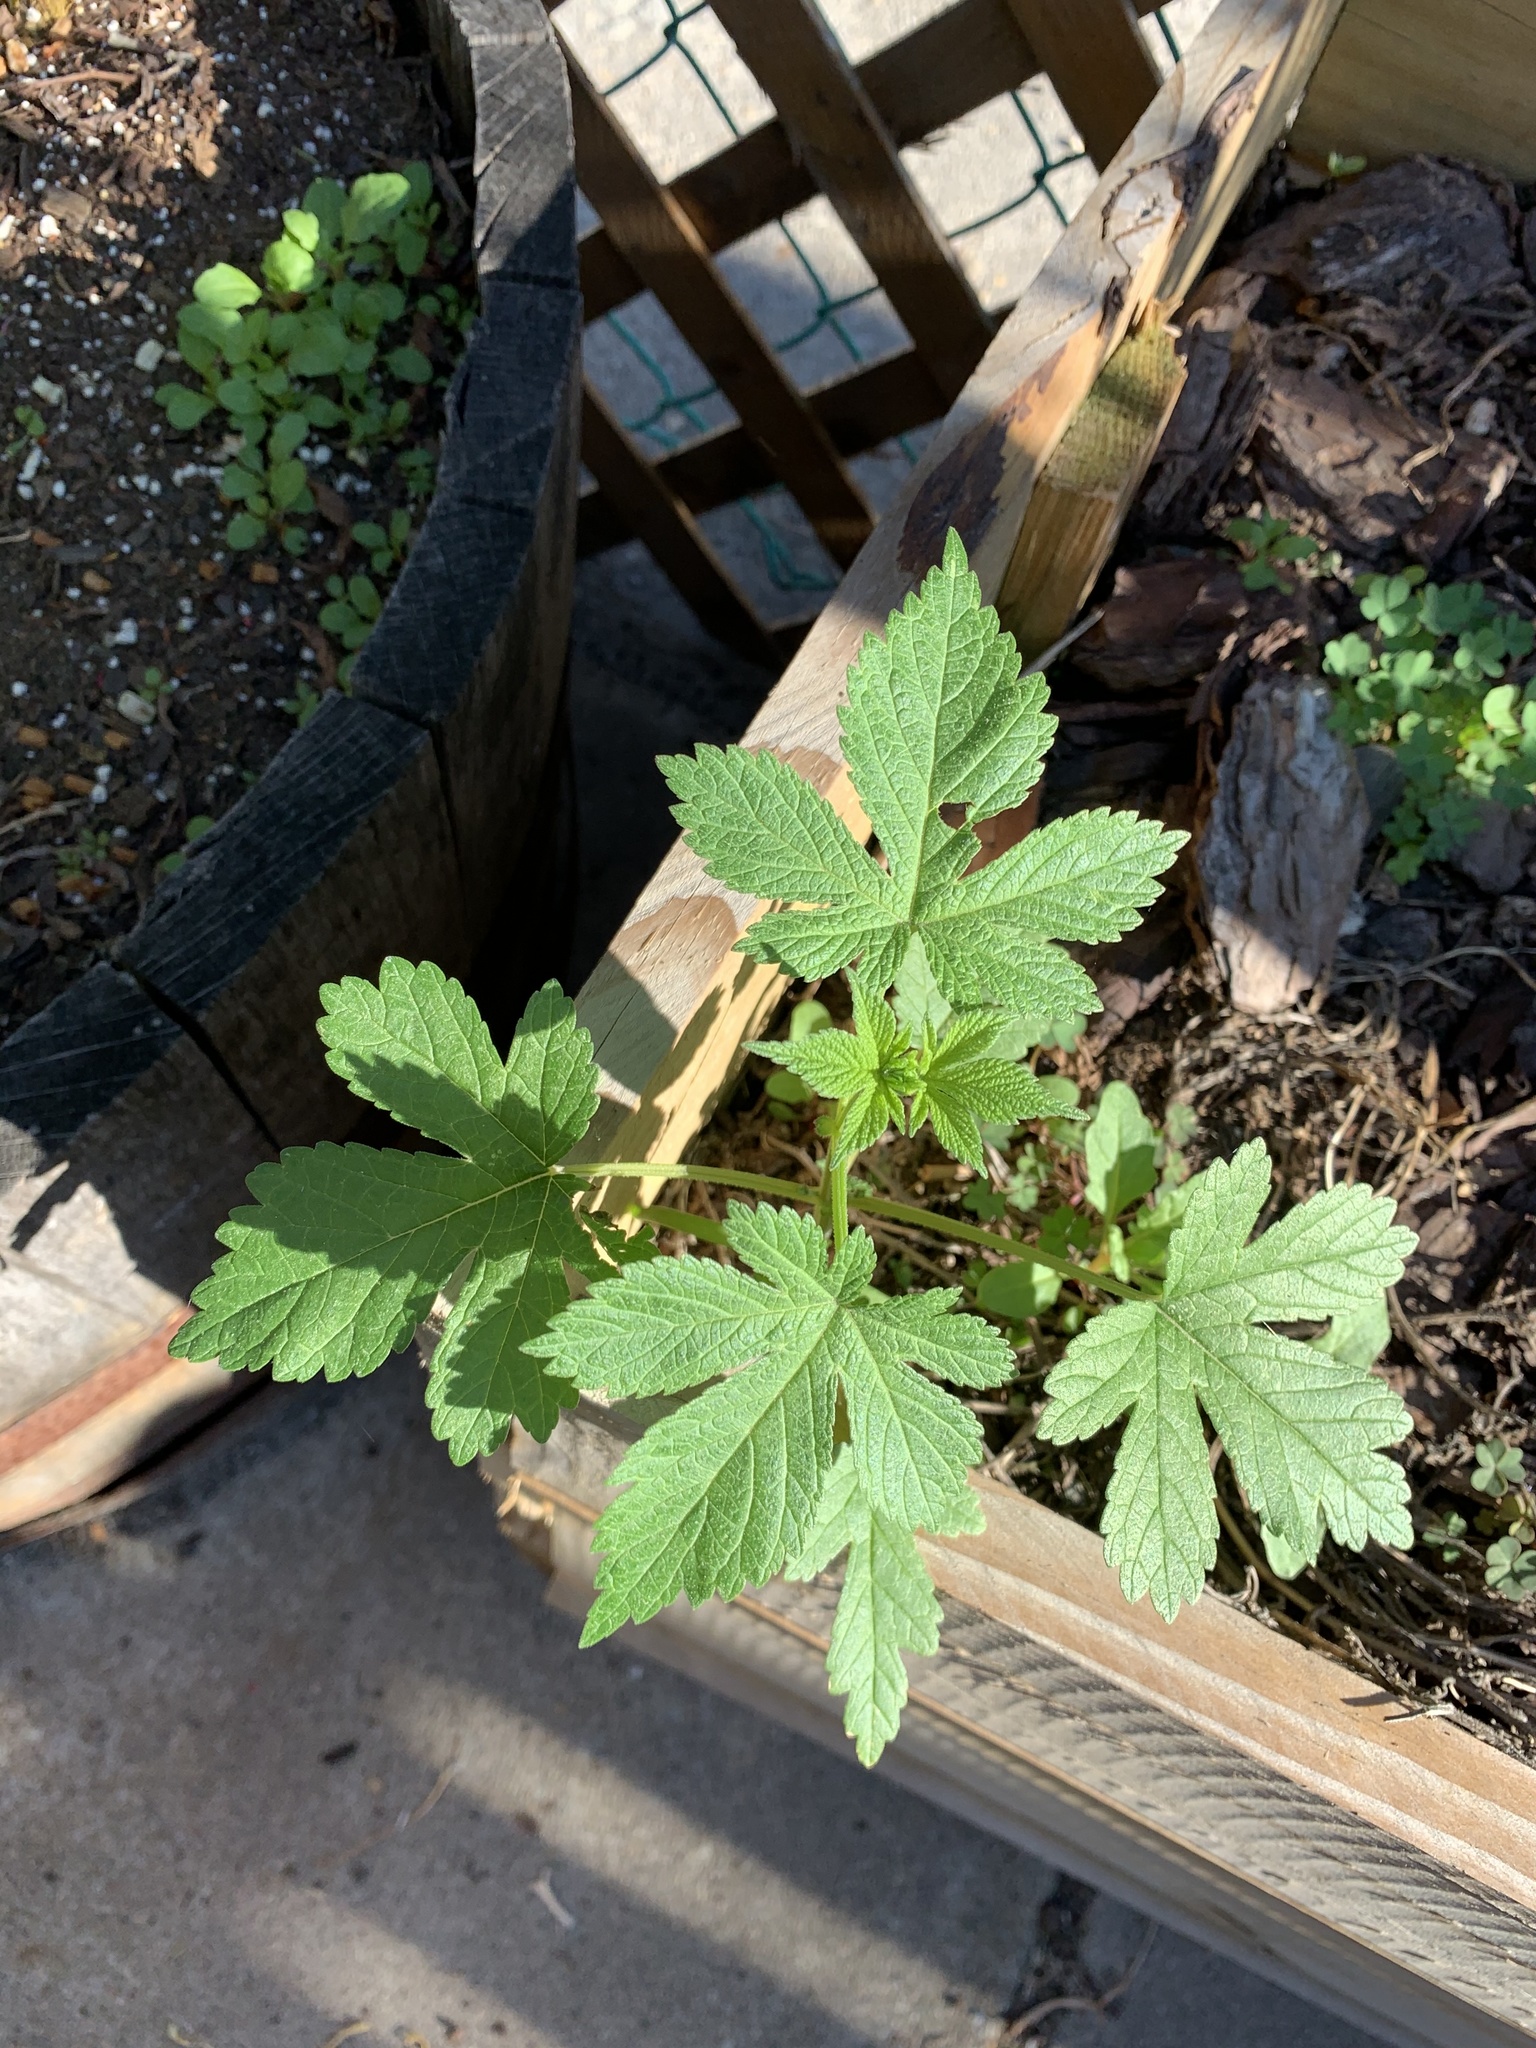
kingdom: Plantae
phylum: Tracheophyta
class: Magnoliopsida
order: Rosales
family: Cannabaceae
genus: Humulus
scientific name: Humulus scandens
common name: Japanese hop
